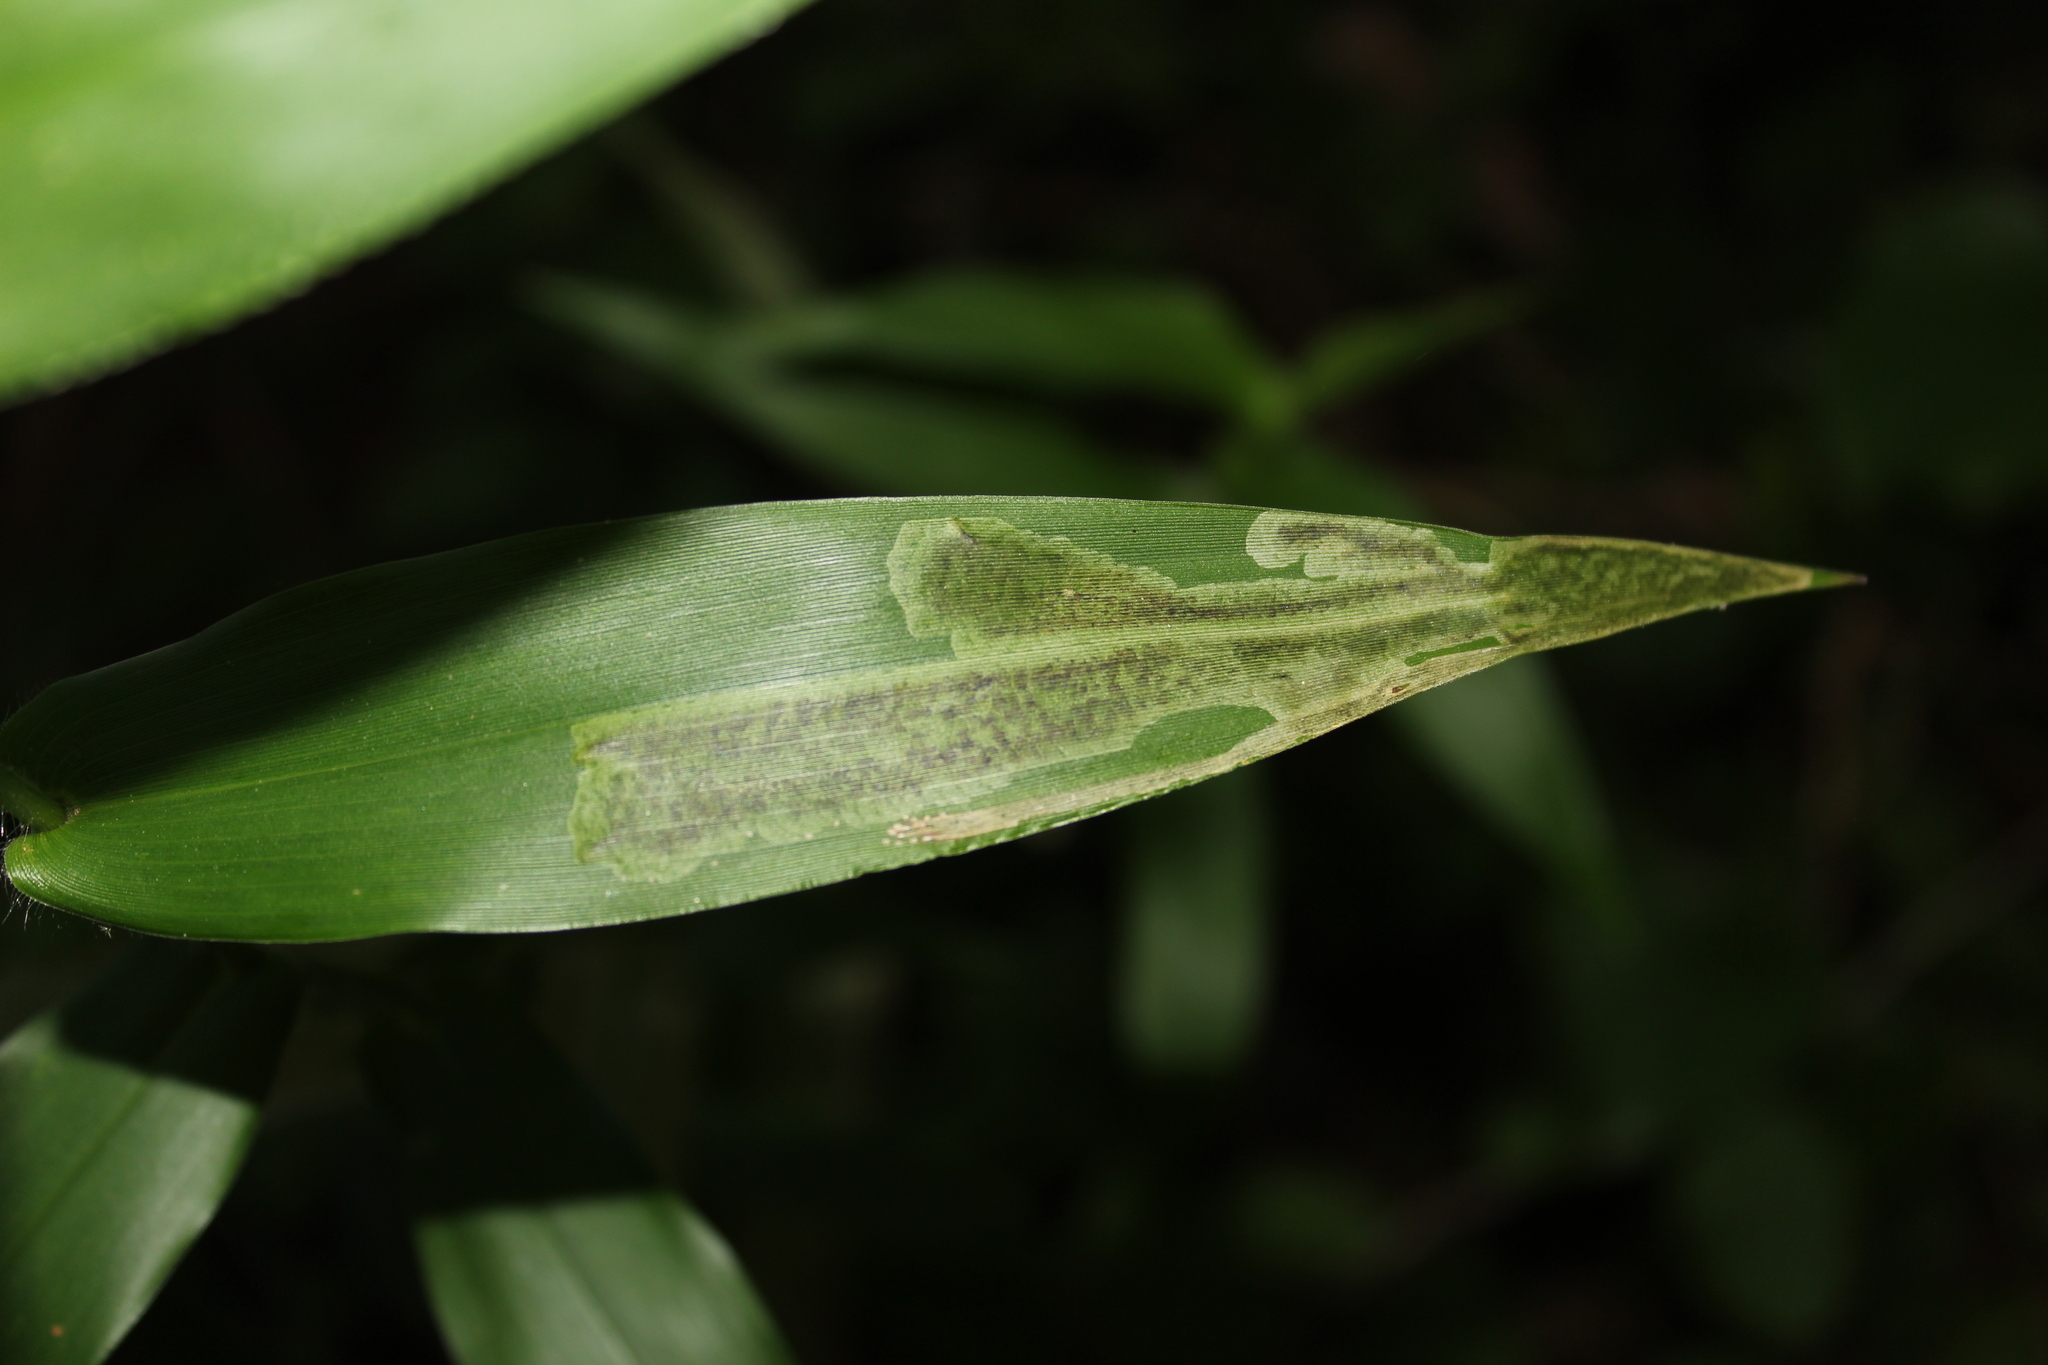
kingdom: Animalia
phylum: Arthropoda
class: Insecta
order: Diptera
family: Agromyzidae
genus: Agromyza
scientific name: Agromyza
